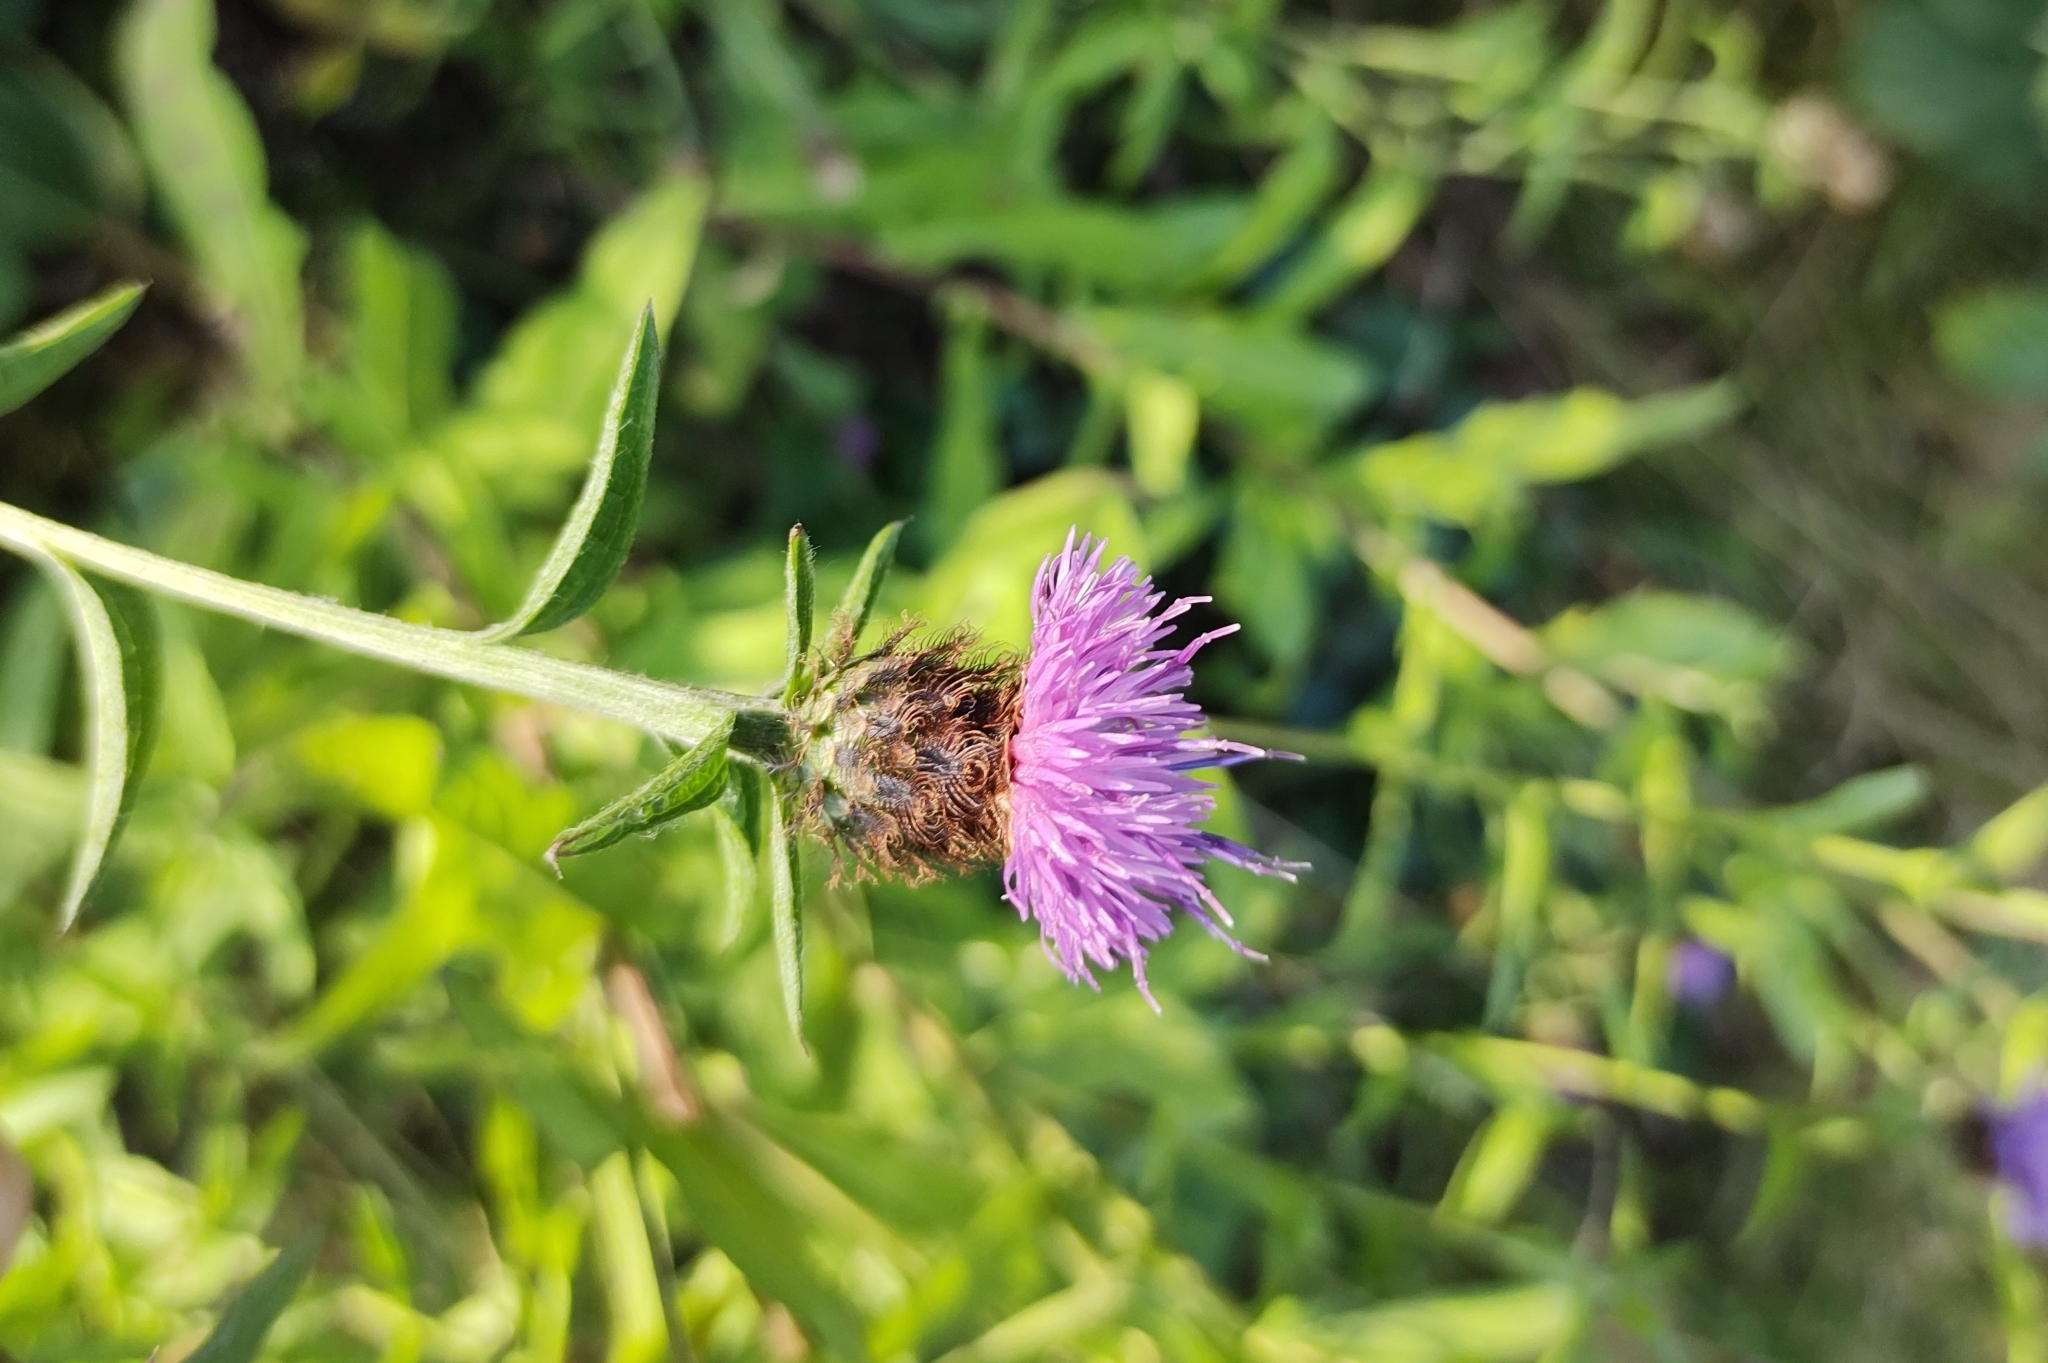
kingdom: Plantae
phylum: Tracheophyta
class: Magnoliopsida
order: Asterales
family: Asteraceae
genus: Centaurea
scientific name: Centaurea nigra
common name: Lesser knapweed
